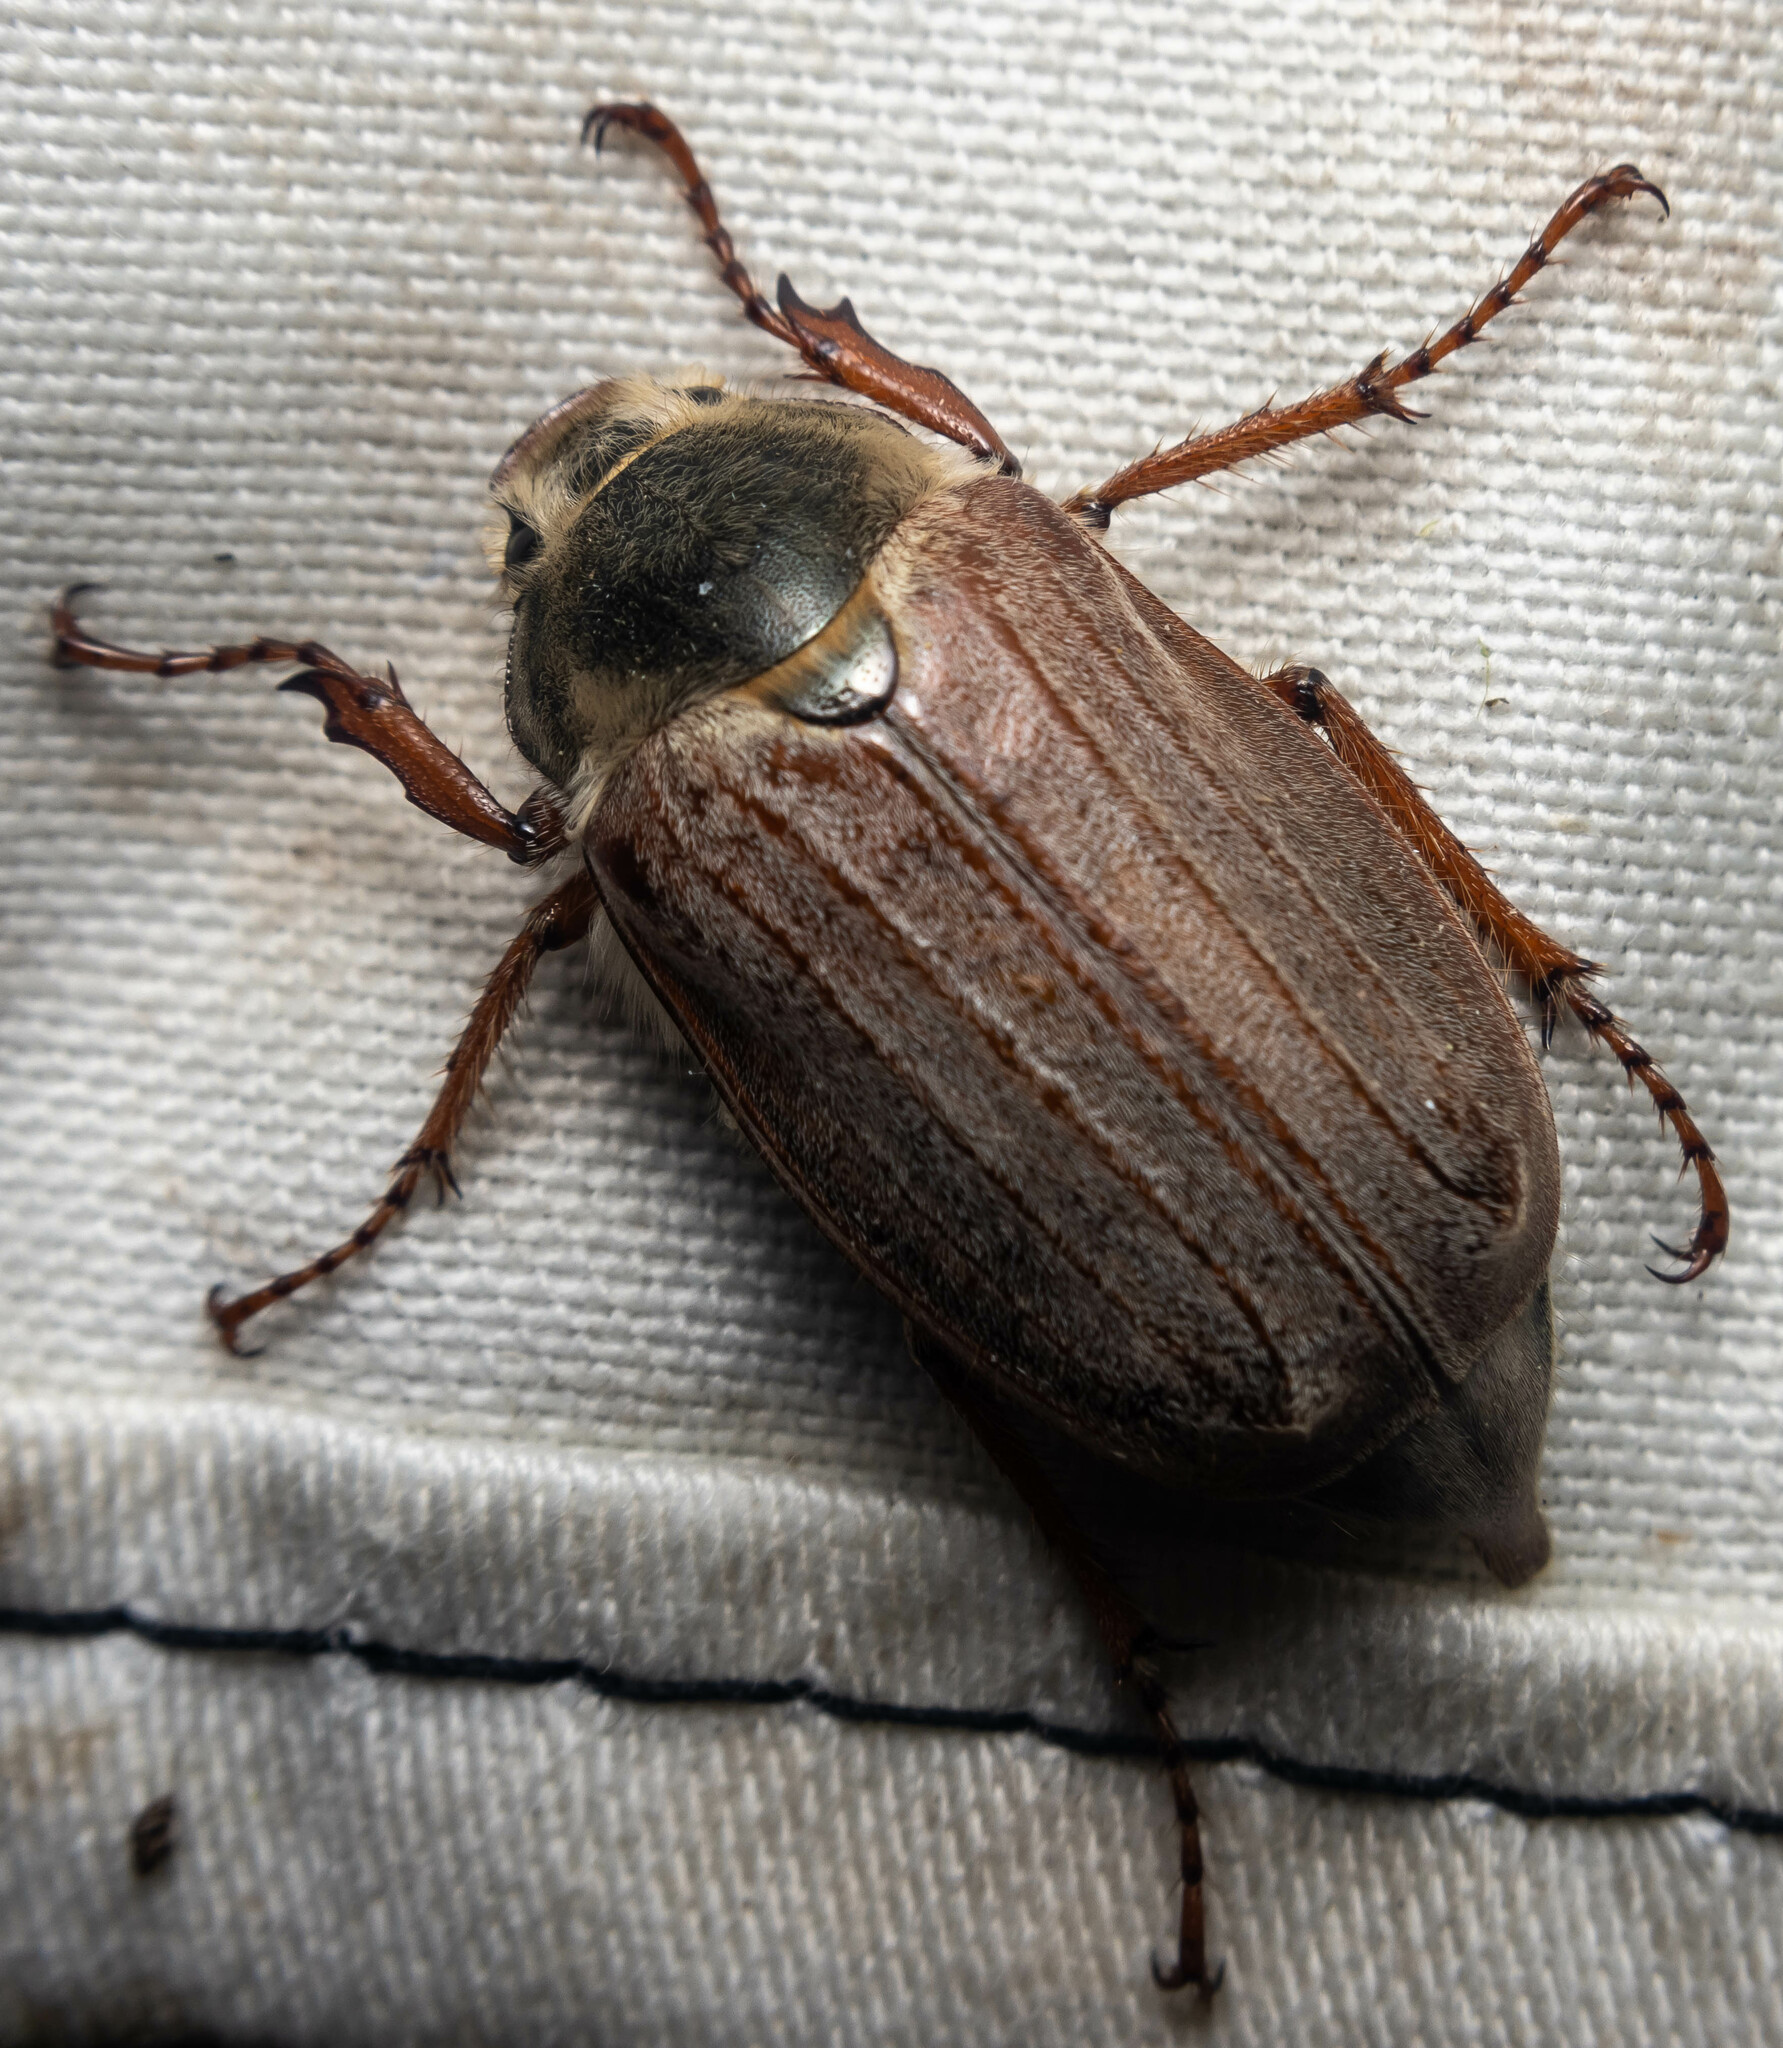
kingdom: Animalia
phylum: Arthropoda
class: Insecta
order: Coleoptera
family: Scarabaeidae
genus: Melolontha
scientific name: Melolontha melolontha
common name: Cockchafer maybeetle
